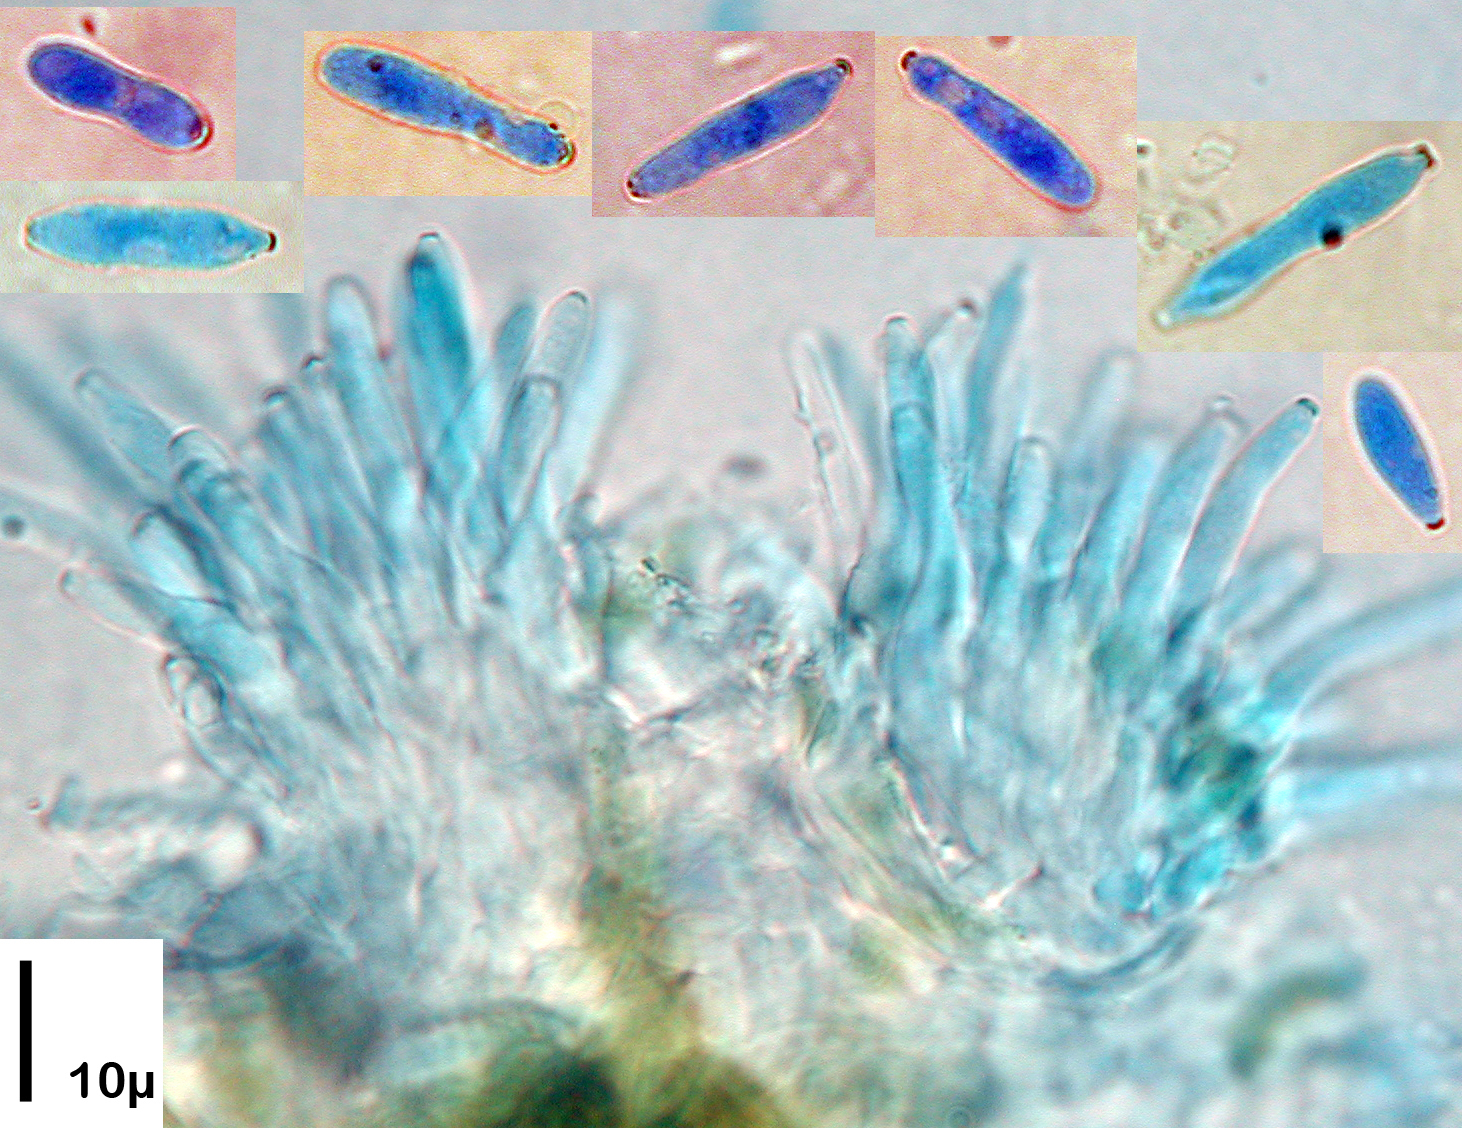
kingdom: Fungi
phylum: Ascomycota
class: Dothideomycetes
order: Mycosphaerellales
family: Mycosphaerellaceae
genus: Ramularia
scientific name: Ramularia urticae
